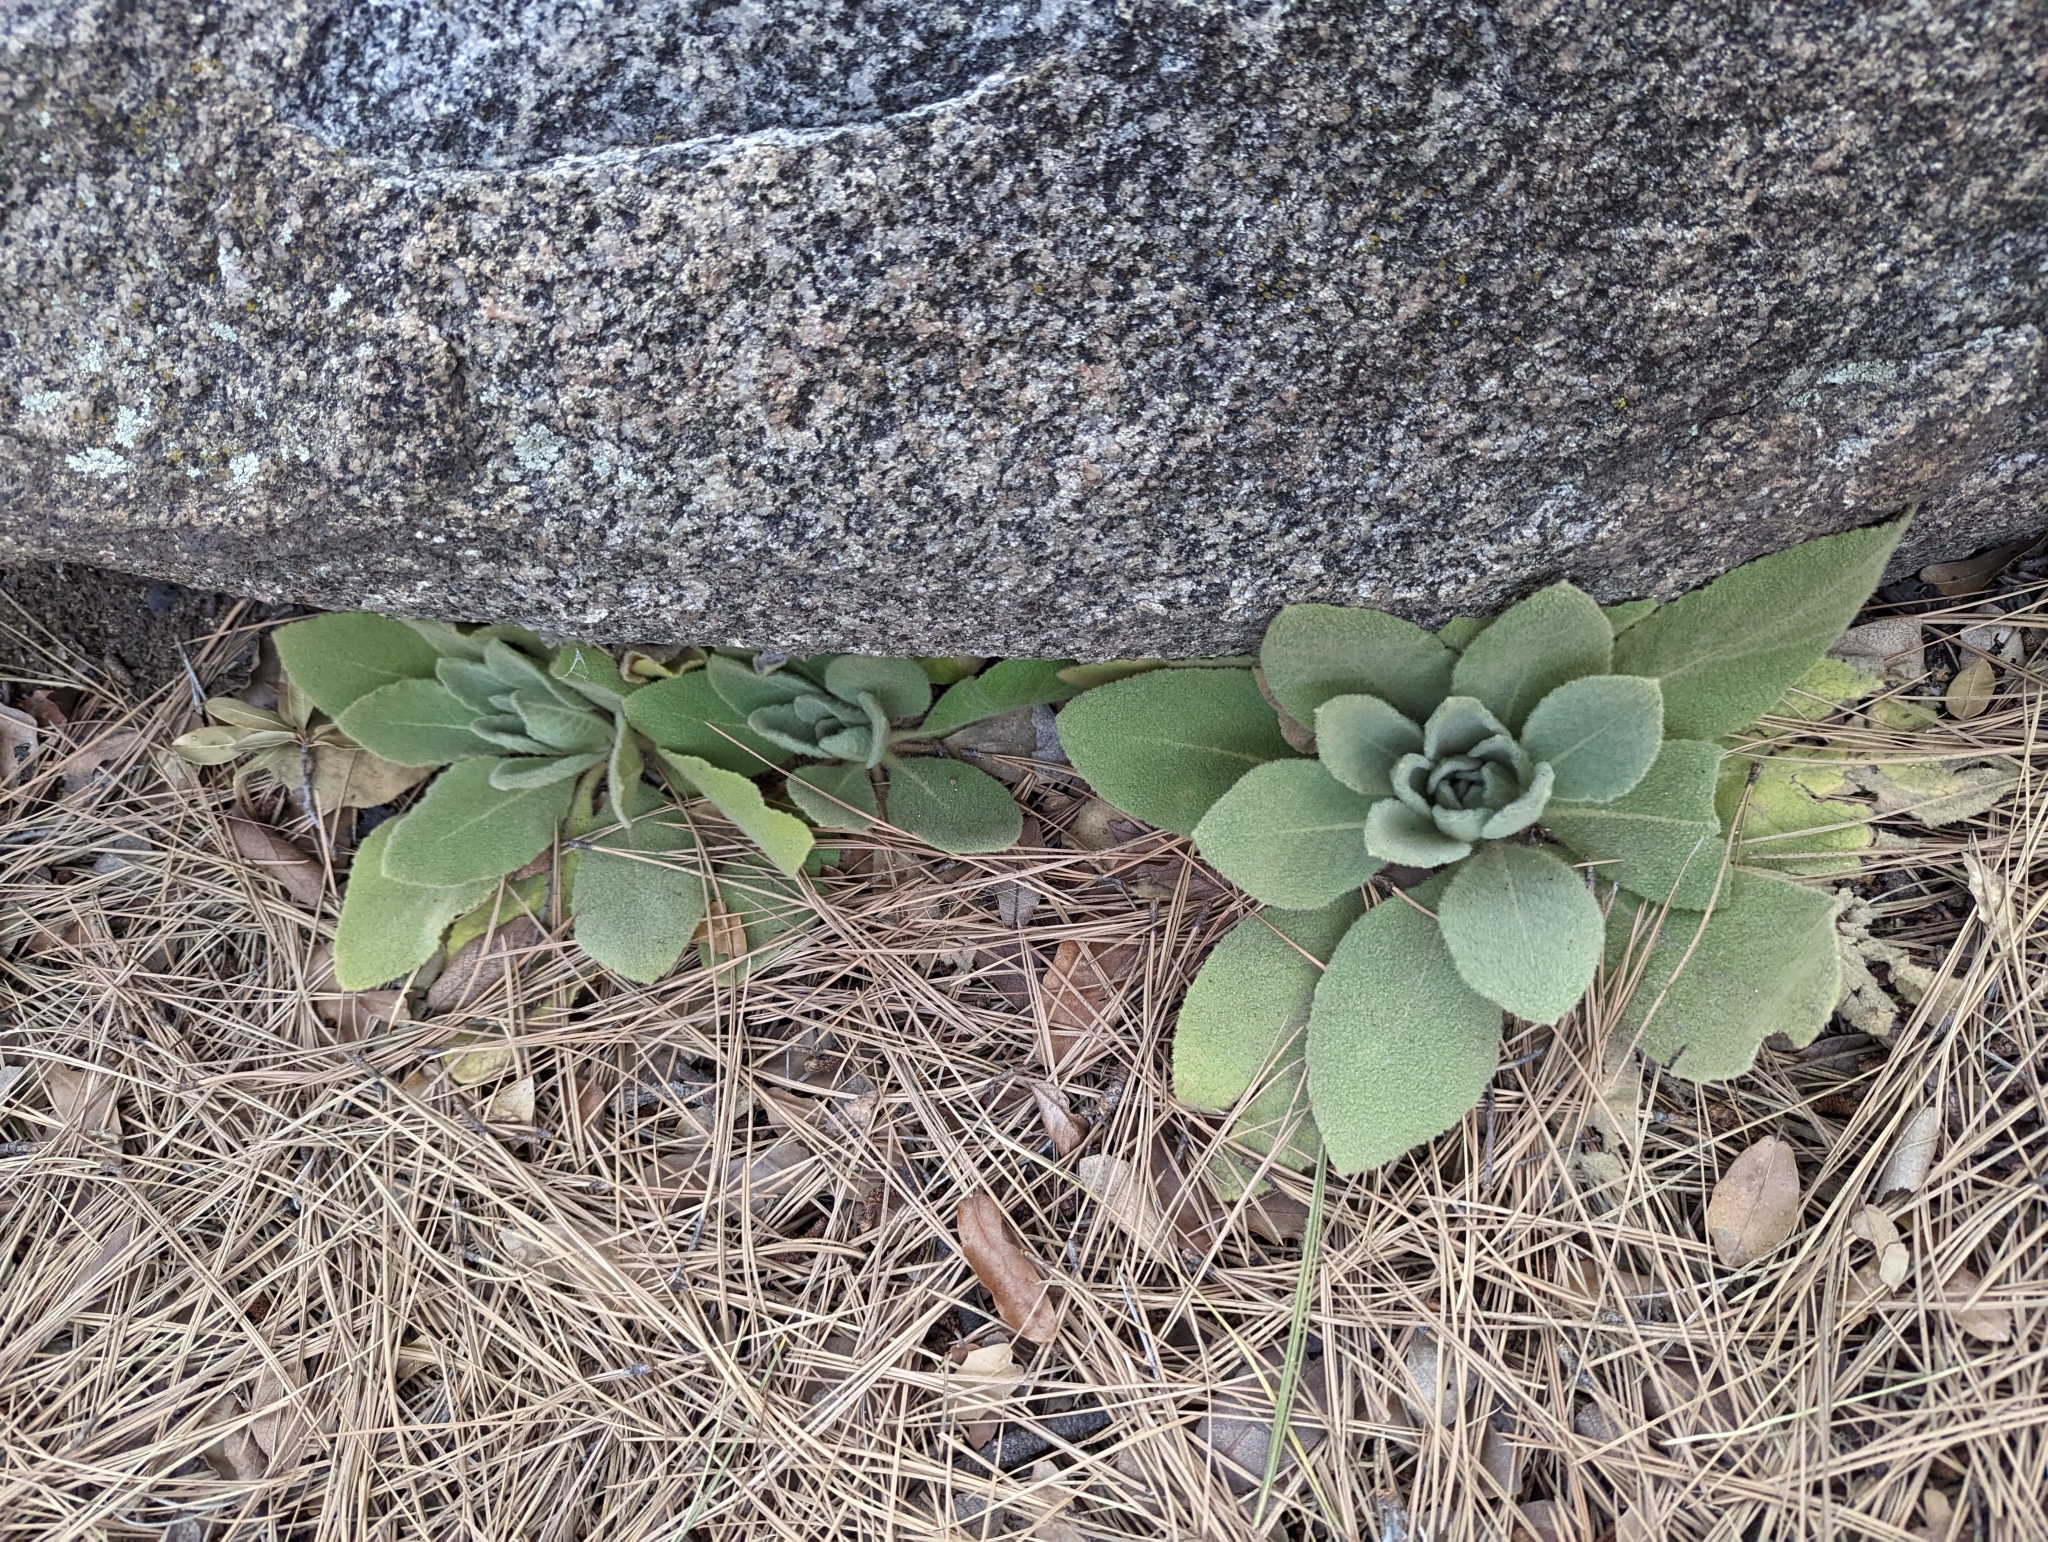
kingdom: Plantae
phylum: Tracheophyta
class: Magnoliopsida
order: Lamiales
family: Scrophulariaceae
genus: Verbascum
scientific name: Verbascum thapsus
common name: Common mullein
